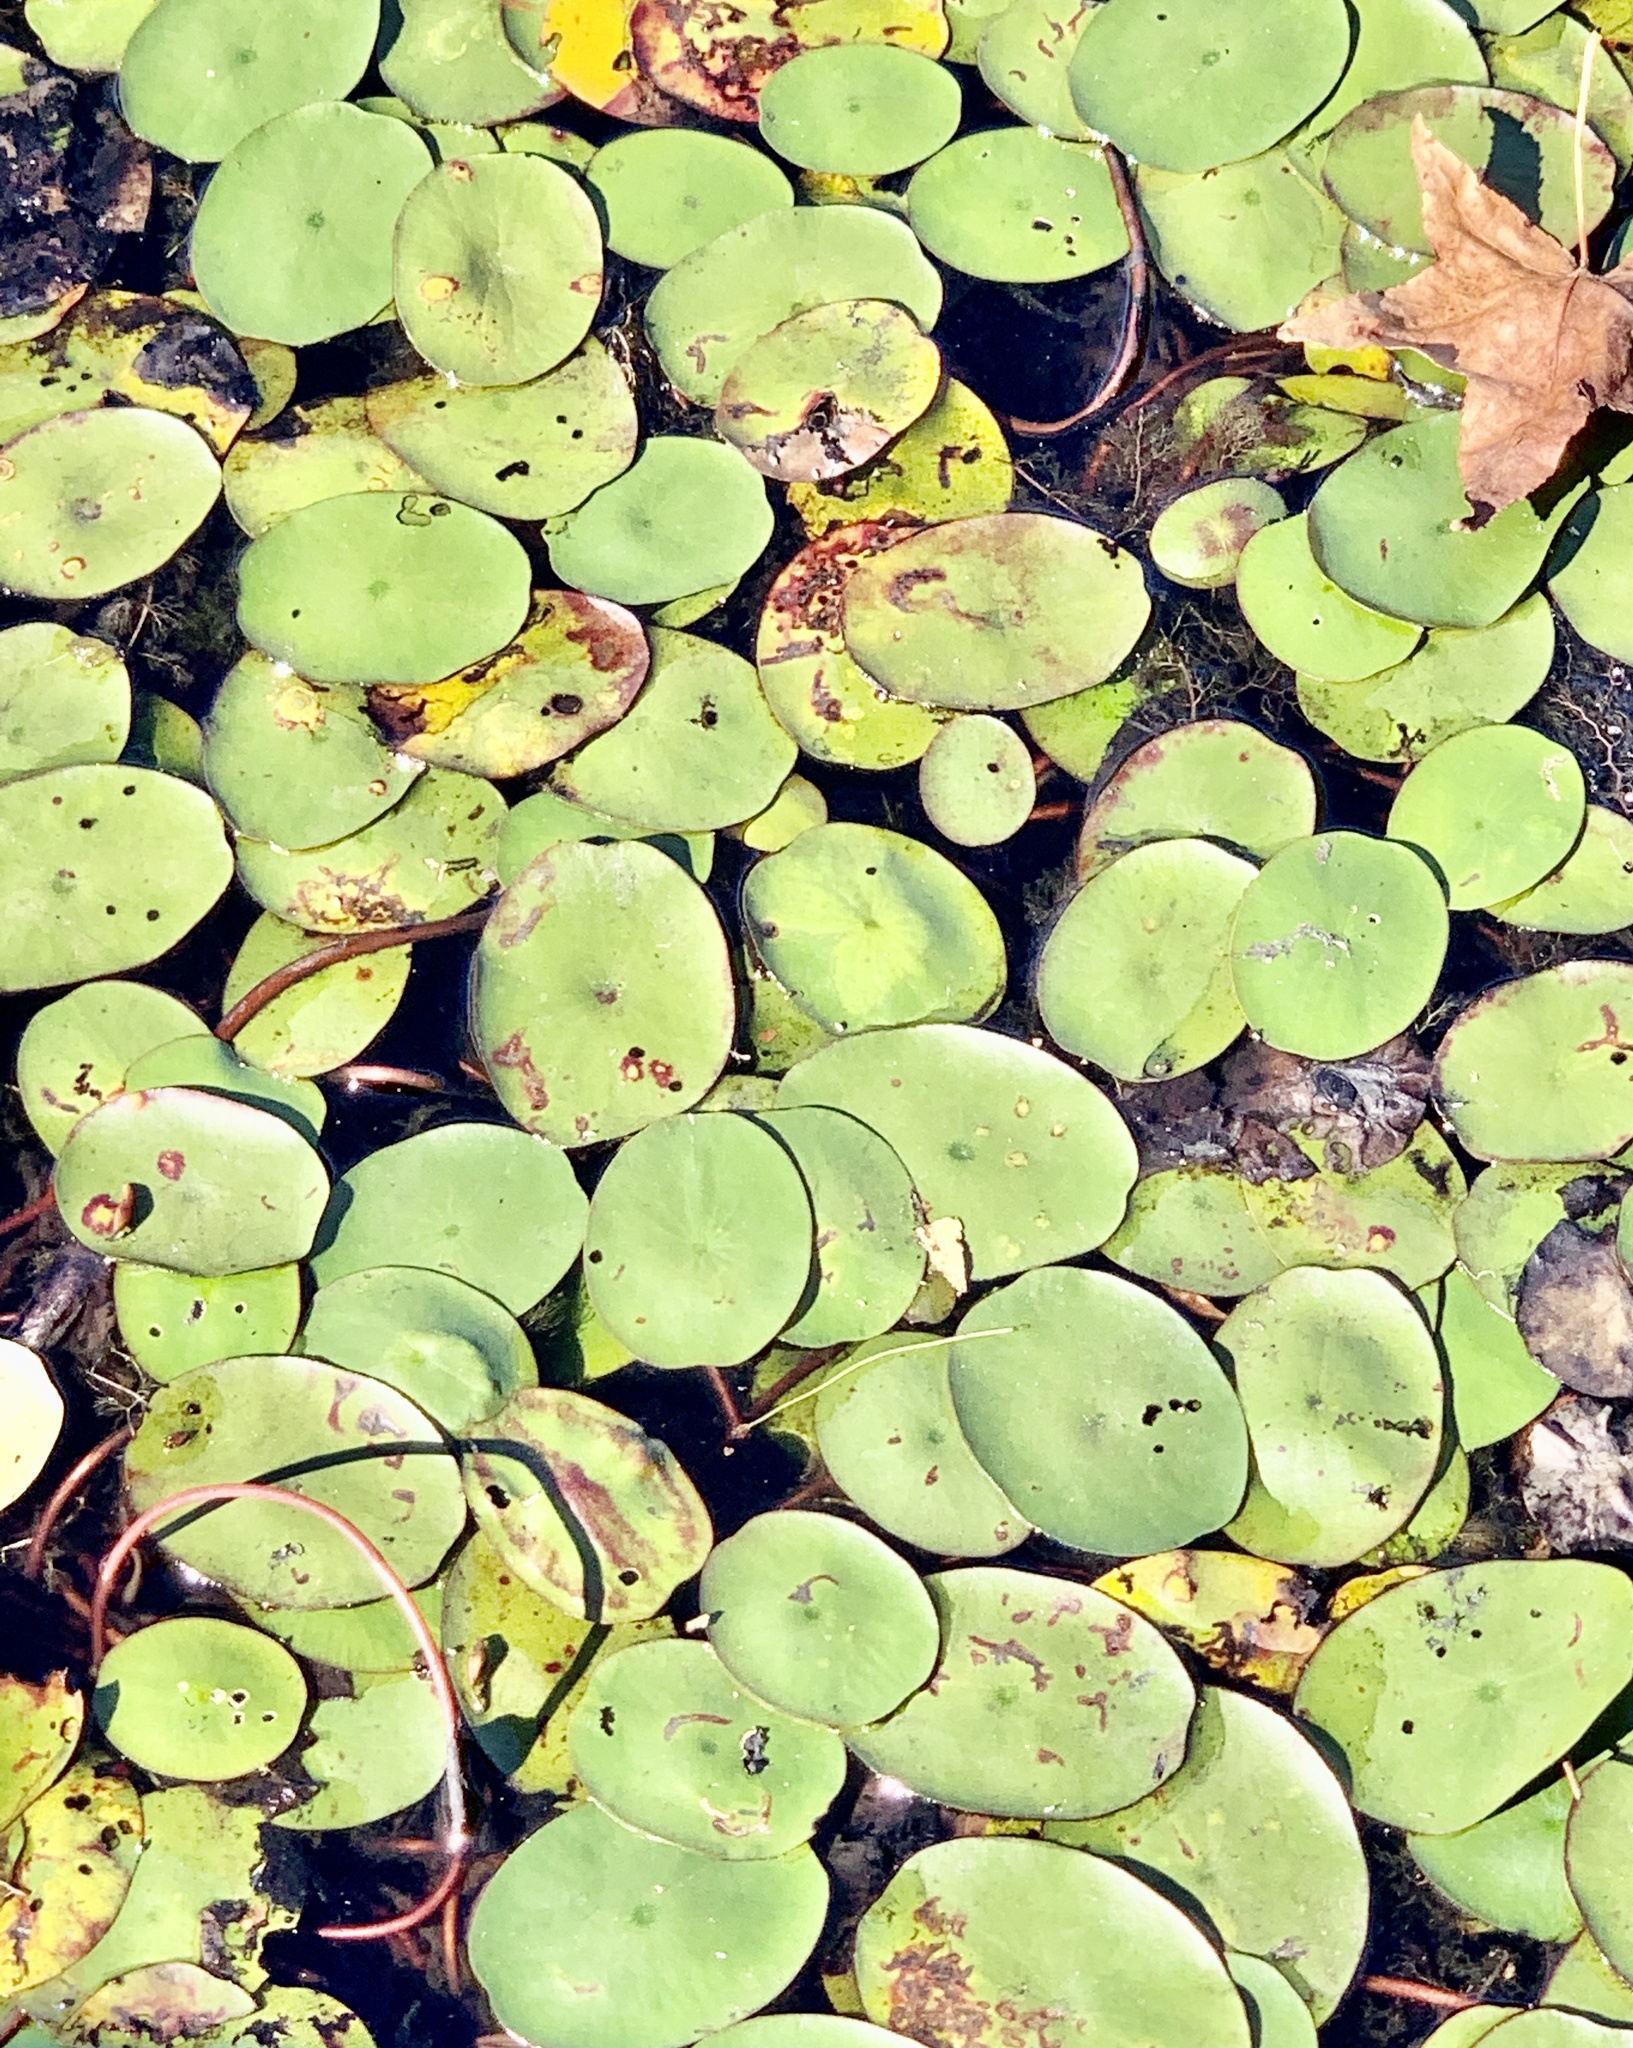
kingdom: Plantae
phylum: Tracheophyta
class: Magnoliopsida
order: Nymphaeales
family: Cabombaceae
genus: Brasenia
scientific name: Brasenia schreberi
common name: Water-shield
